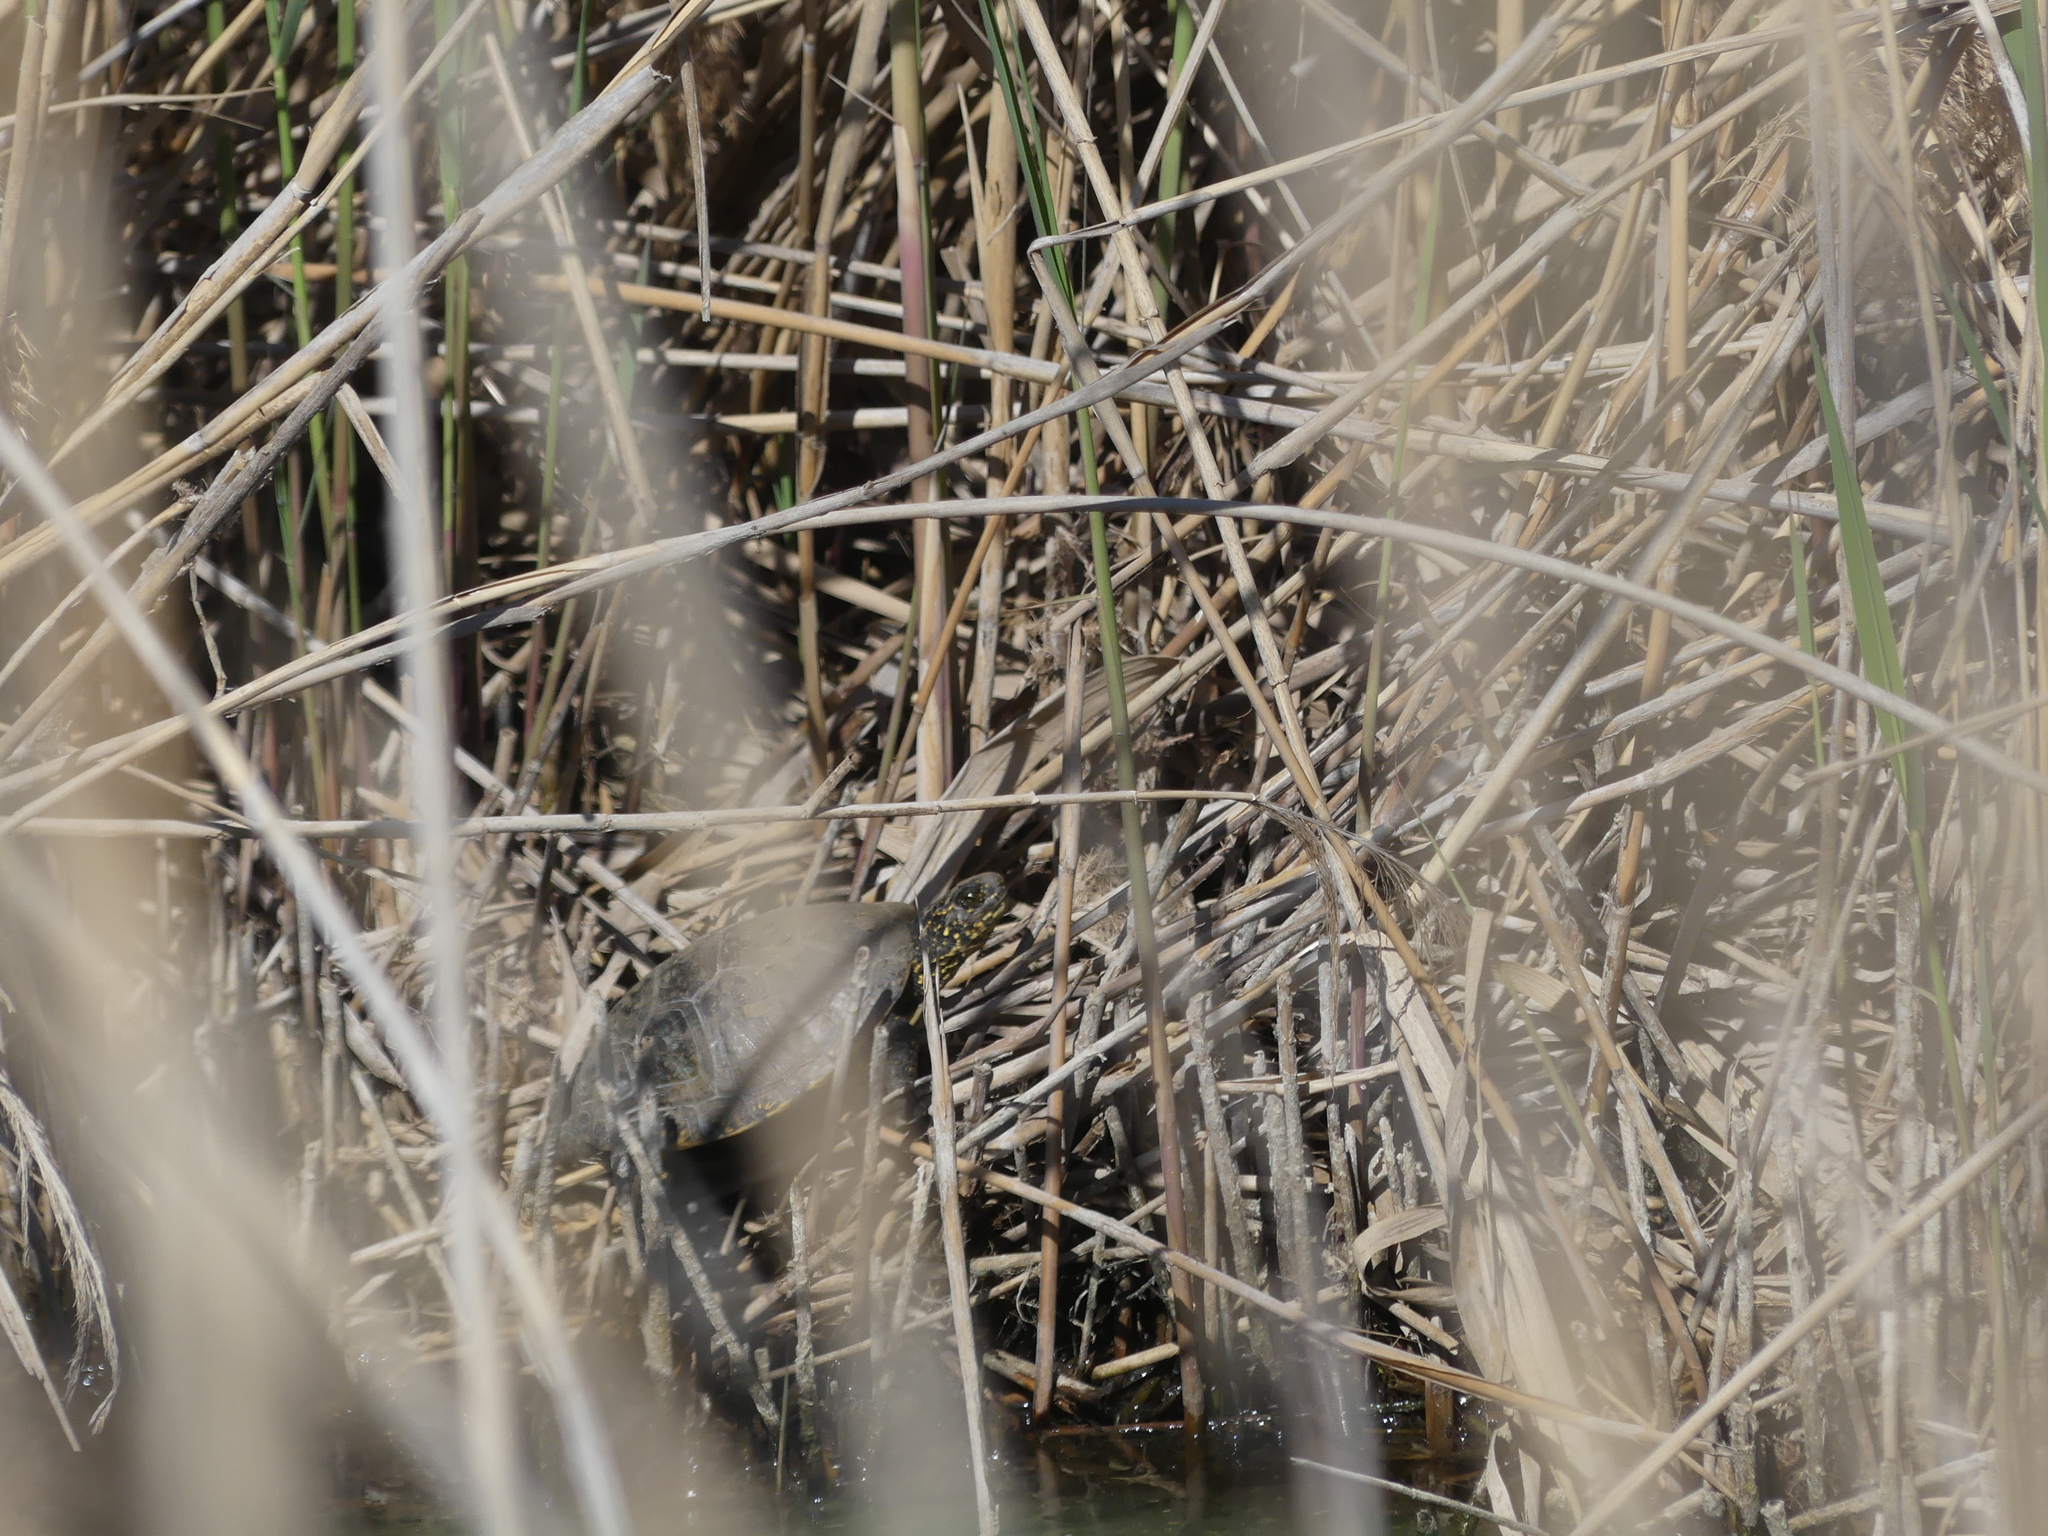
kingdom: Animalia
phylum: Chordata
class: Testudines
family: Emydidae
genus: Emys
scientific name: Emys orbicularis
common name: European pond turtle
